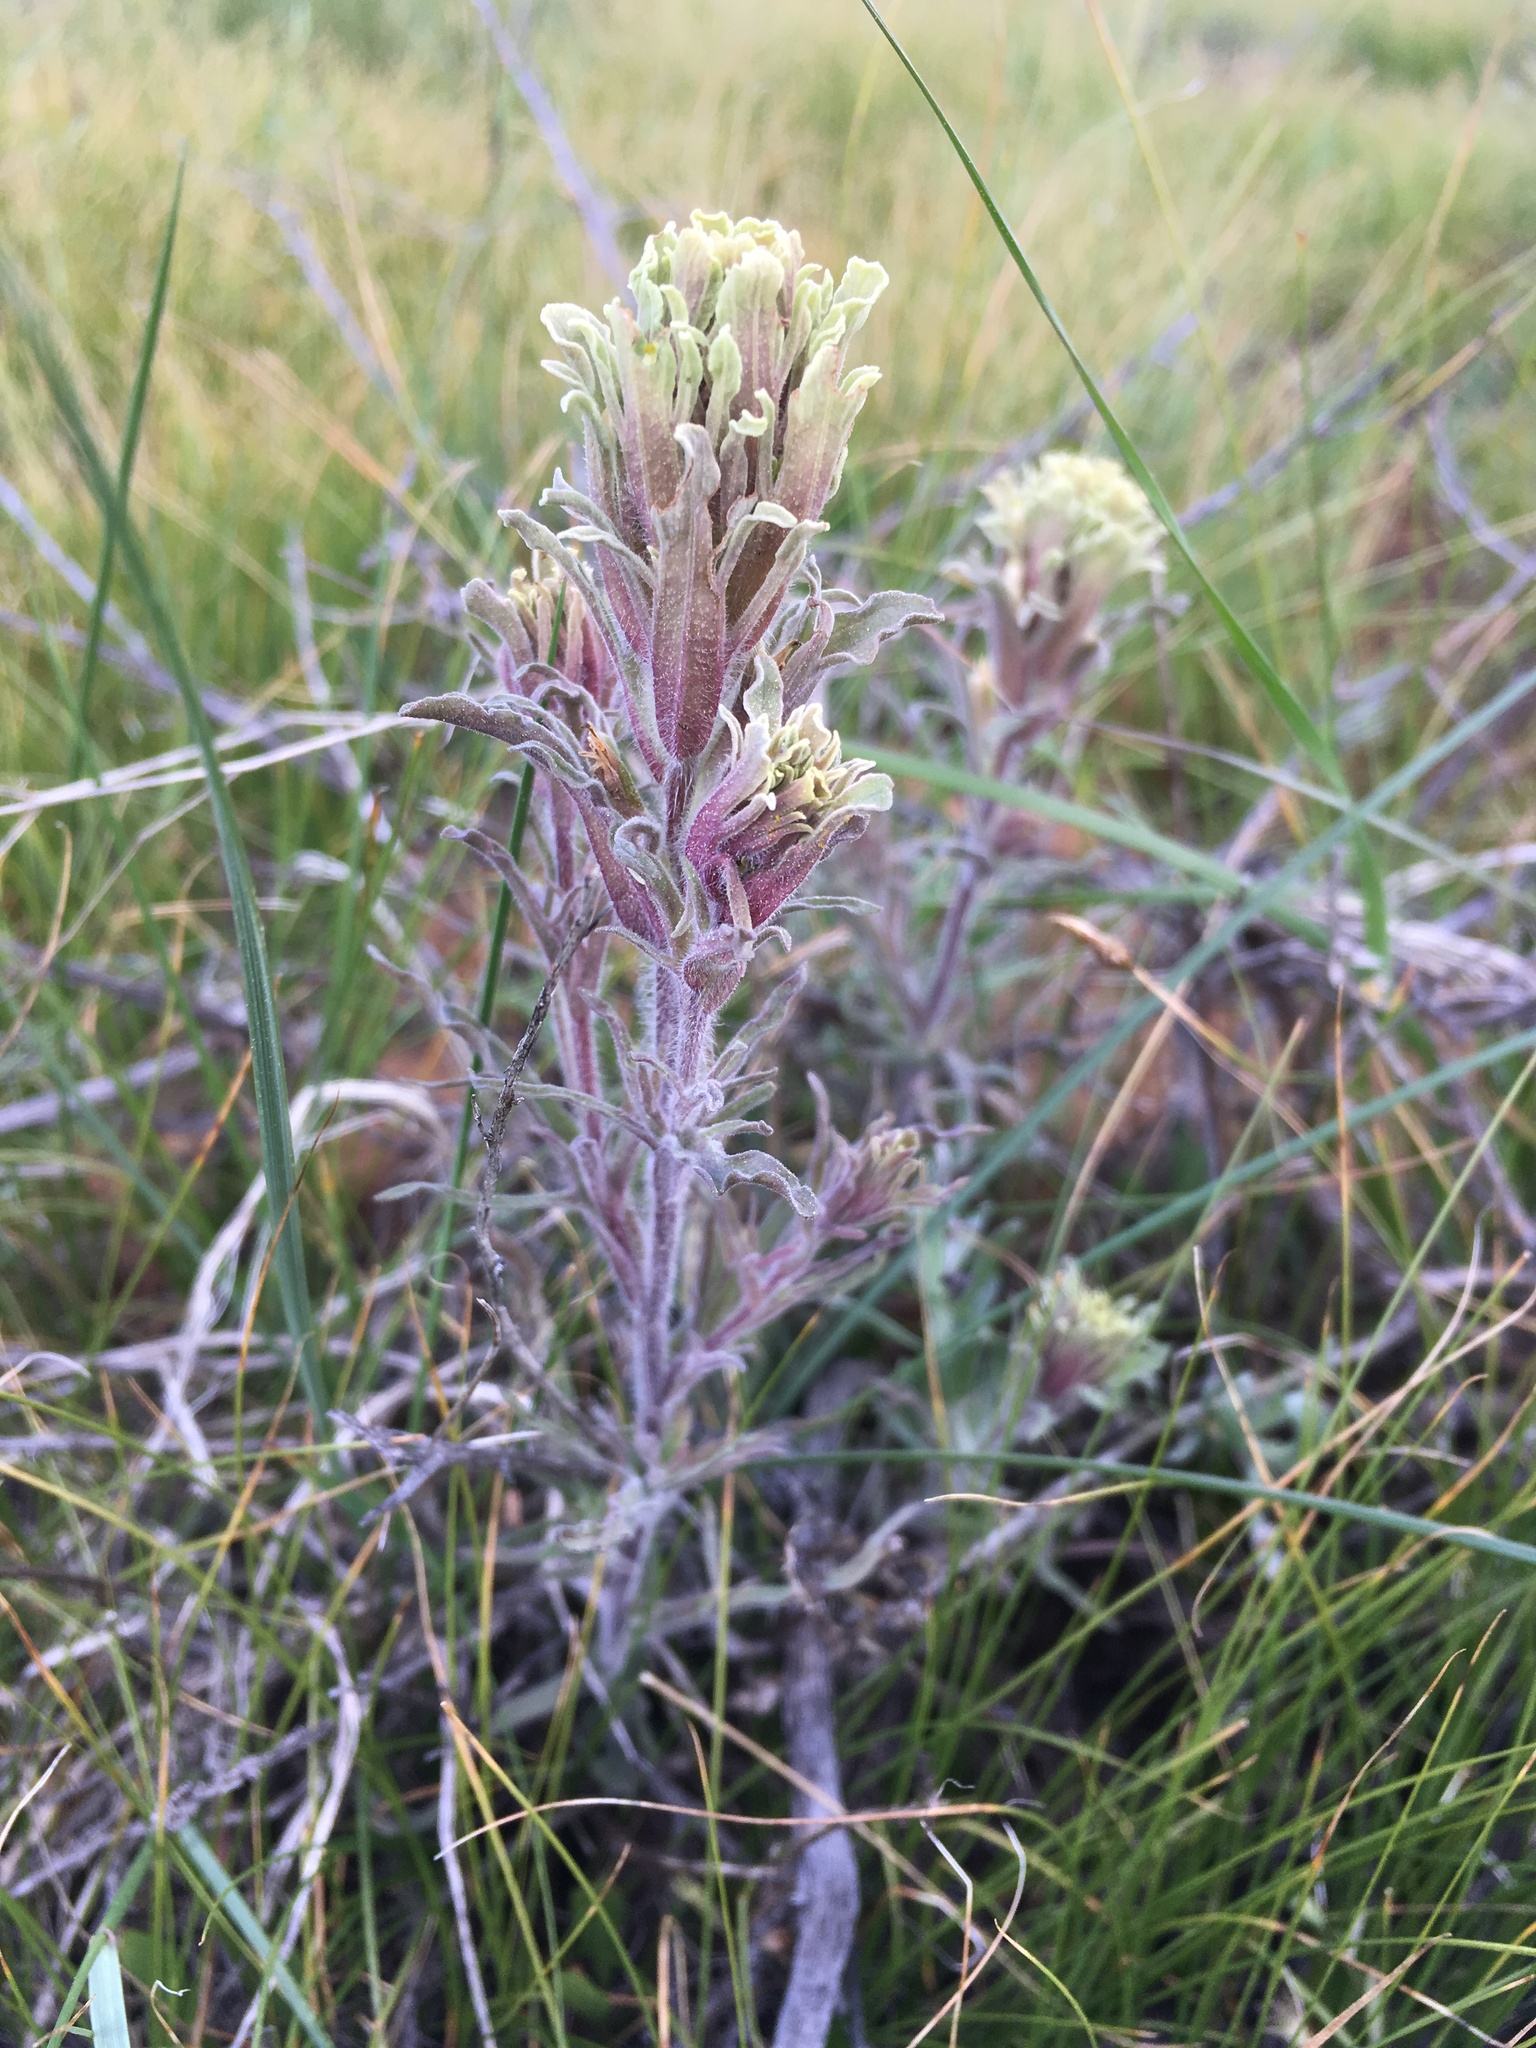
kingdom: Plantae
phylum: Tracheophyta
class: Magnoliopsida
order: Lamiales
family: Orobanchaceae
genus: Castilleja
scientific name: Castilleja pilosa
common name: Hairy paintbrush
